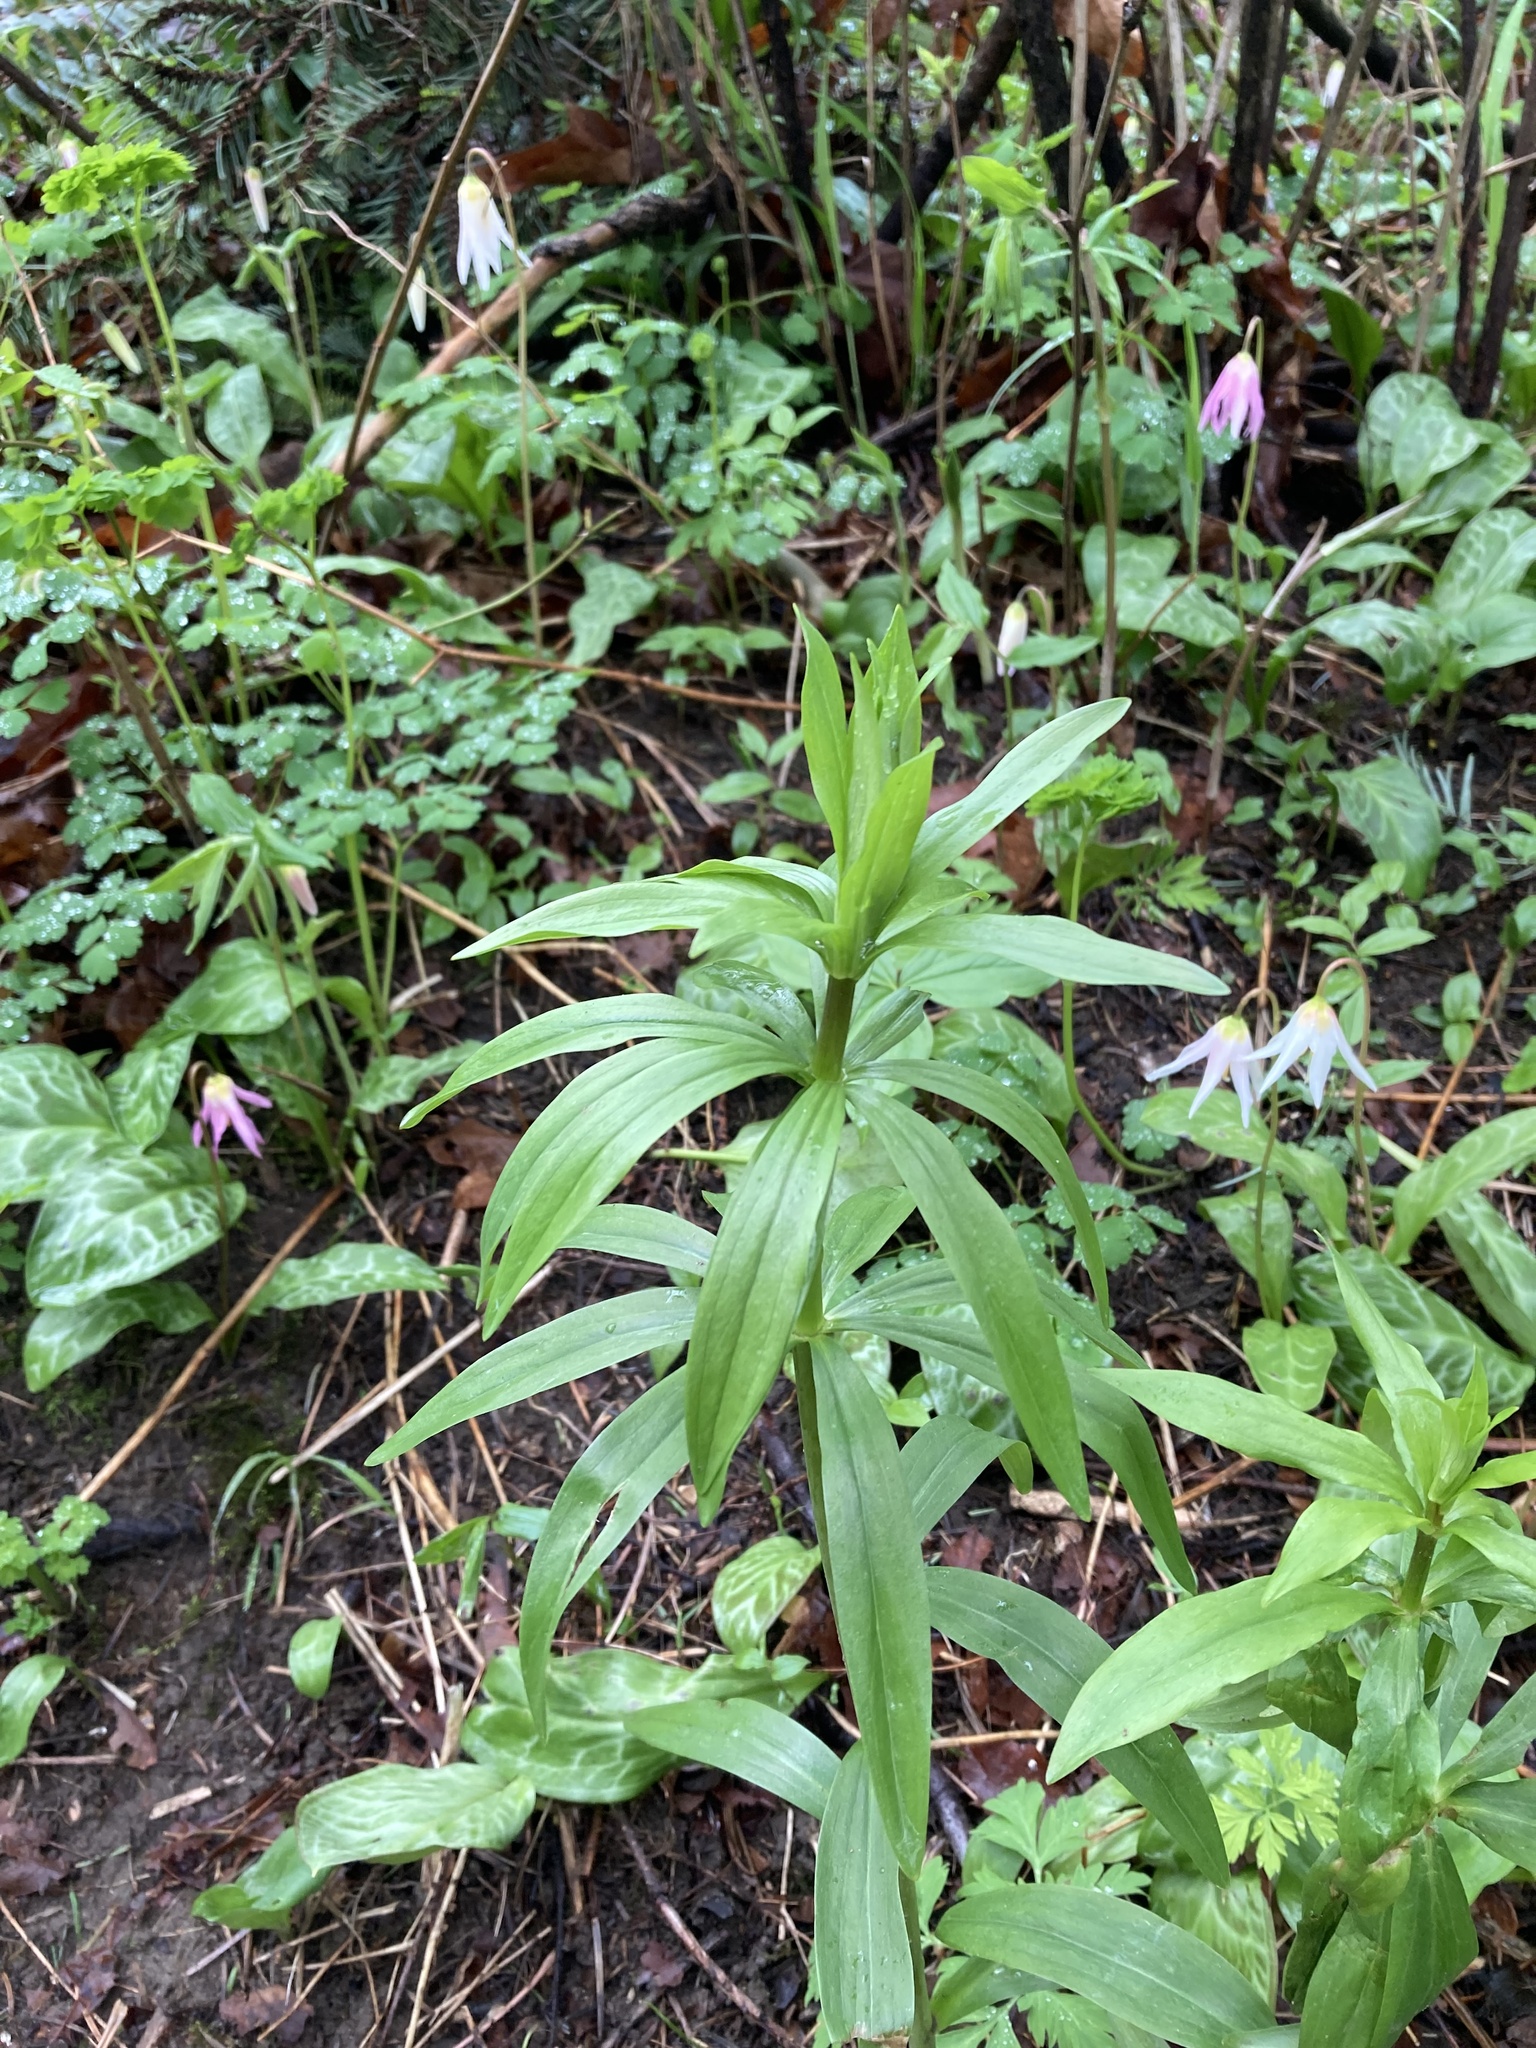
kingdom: Plantae
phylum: Tracheophyta
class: Liliopsida
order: Liliales
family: Liliaceae
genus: Lilium
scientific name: Lilium columbianum
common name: Columbia lily
